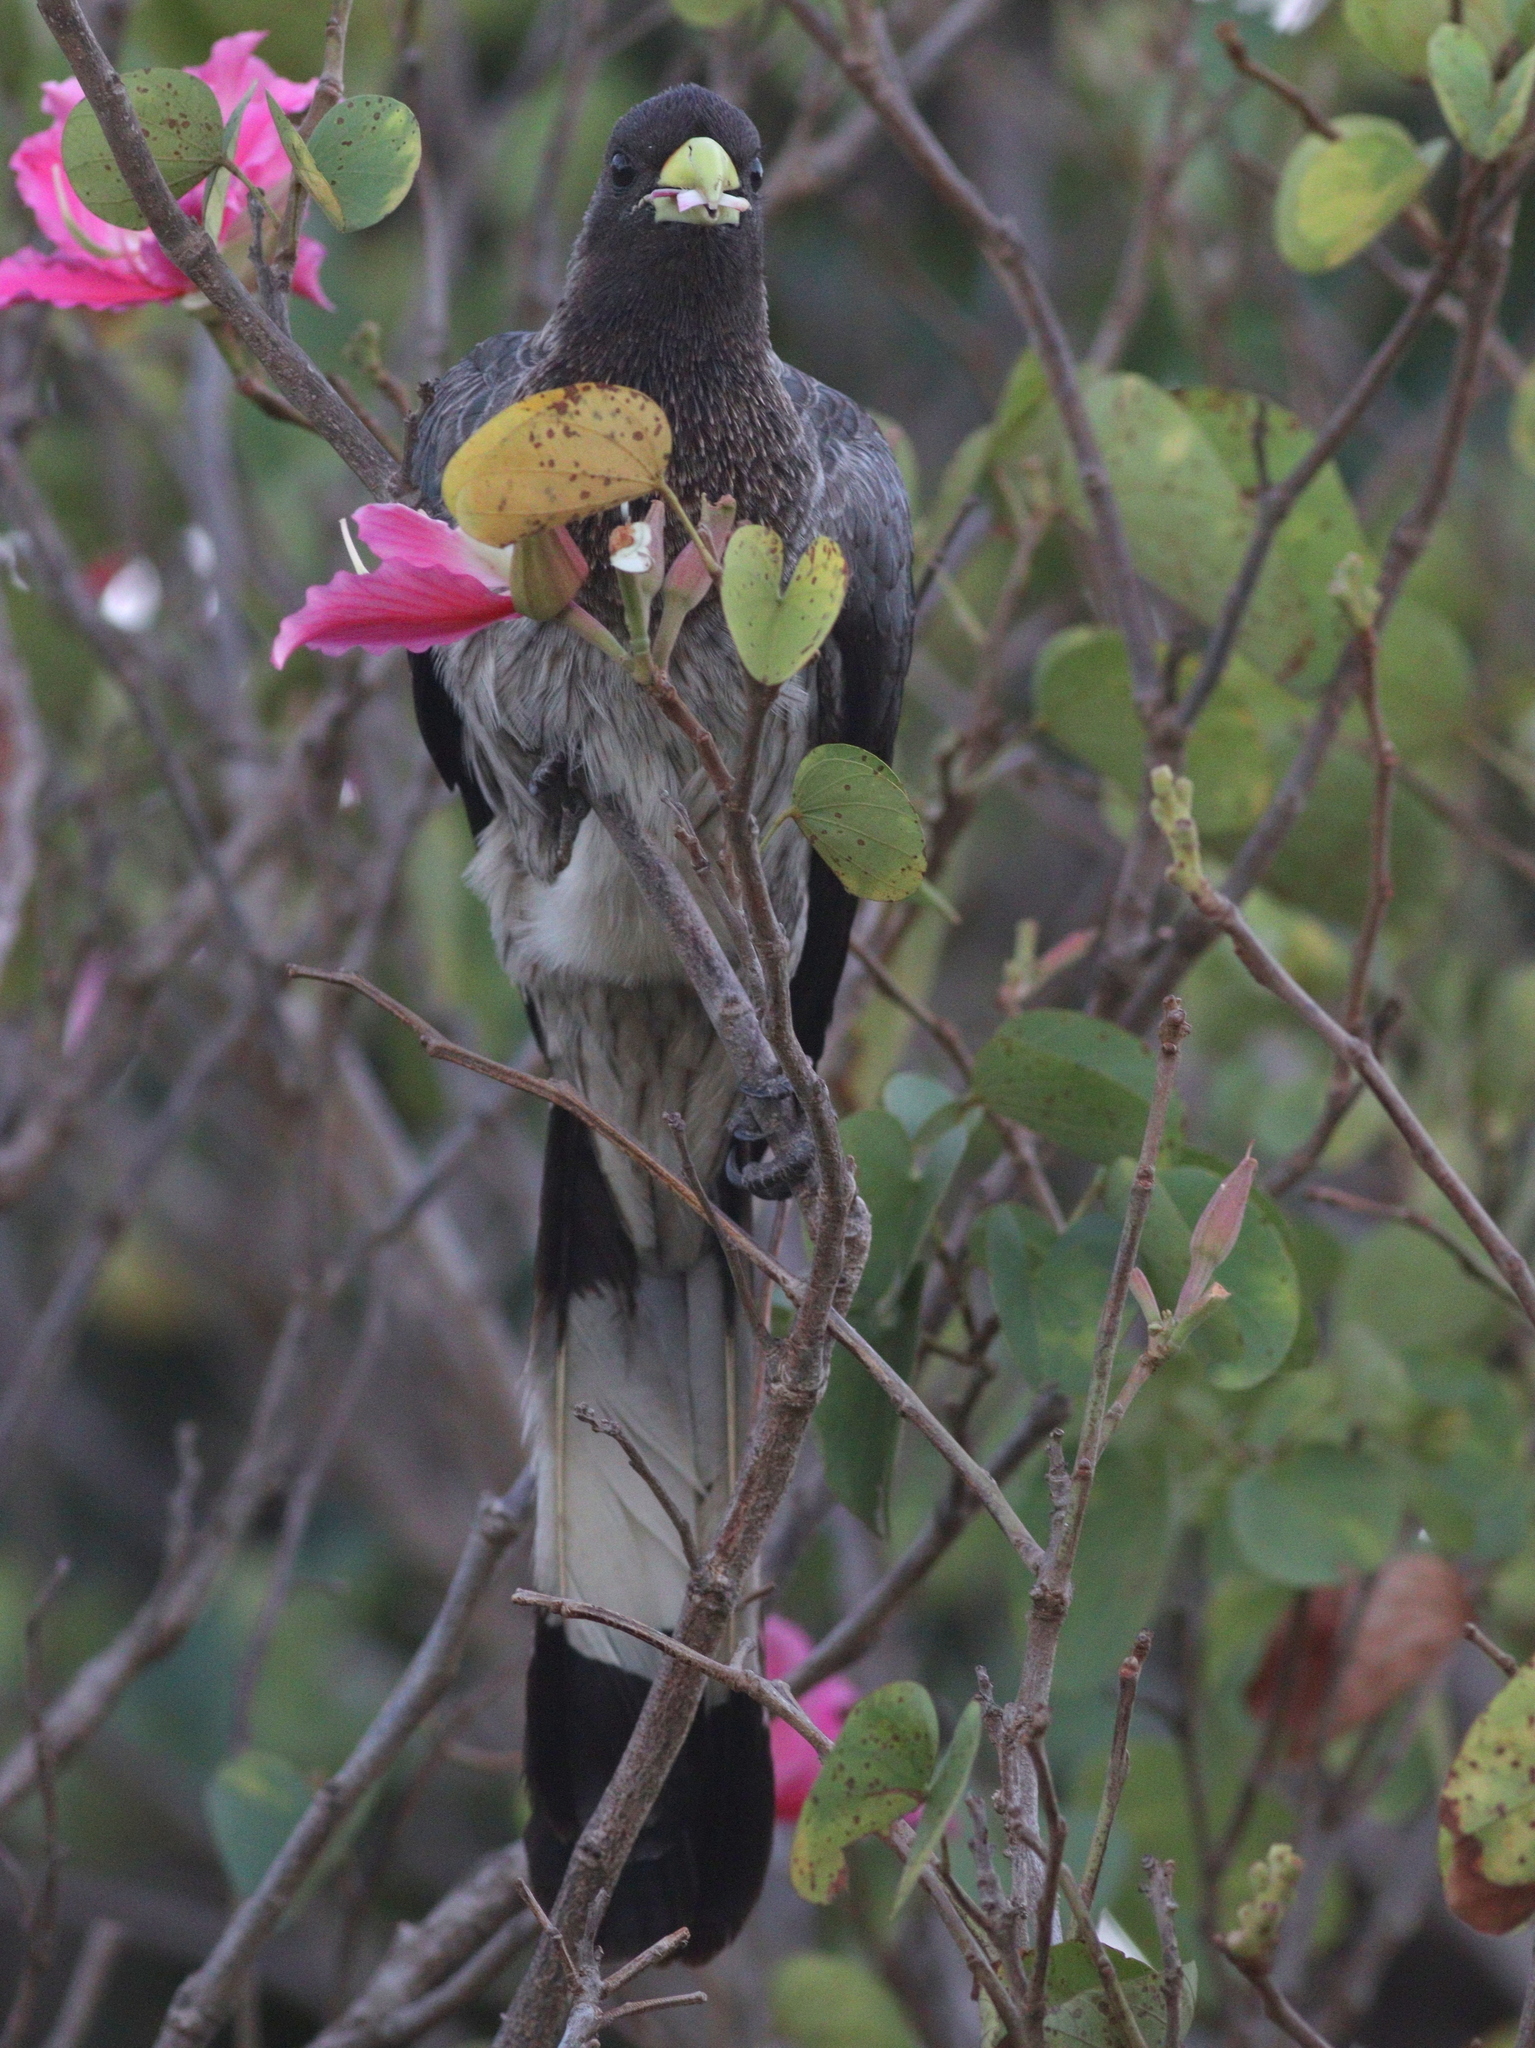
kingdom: Animalia
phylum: Chordata
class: Aves
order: Musophagiformes
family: Musophagidae
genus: Crinifer
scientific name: Crinifer zonurus
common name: Eastern plantain-eater
